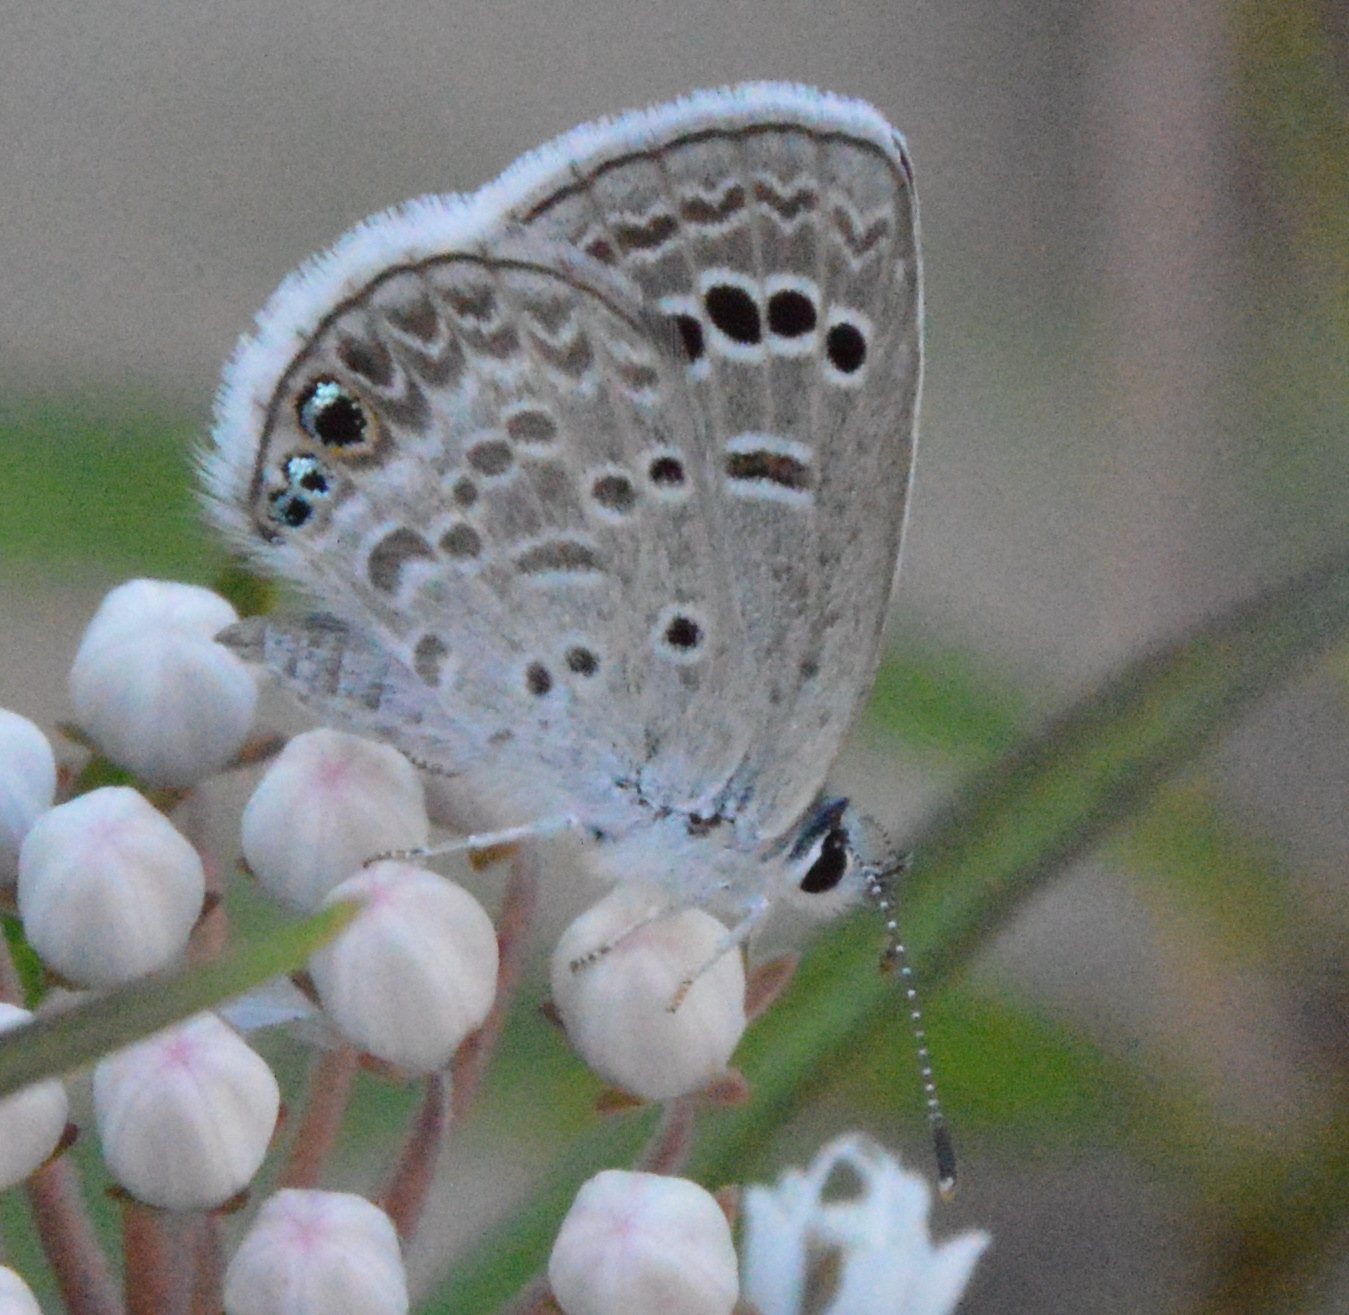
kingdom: Animalia
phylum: Arthropoda
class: Insecta
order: Lepidoptera
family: Lycaenidae
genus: Echinargus
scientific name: Echinargus isola
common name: Reakirt's blue
